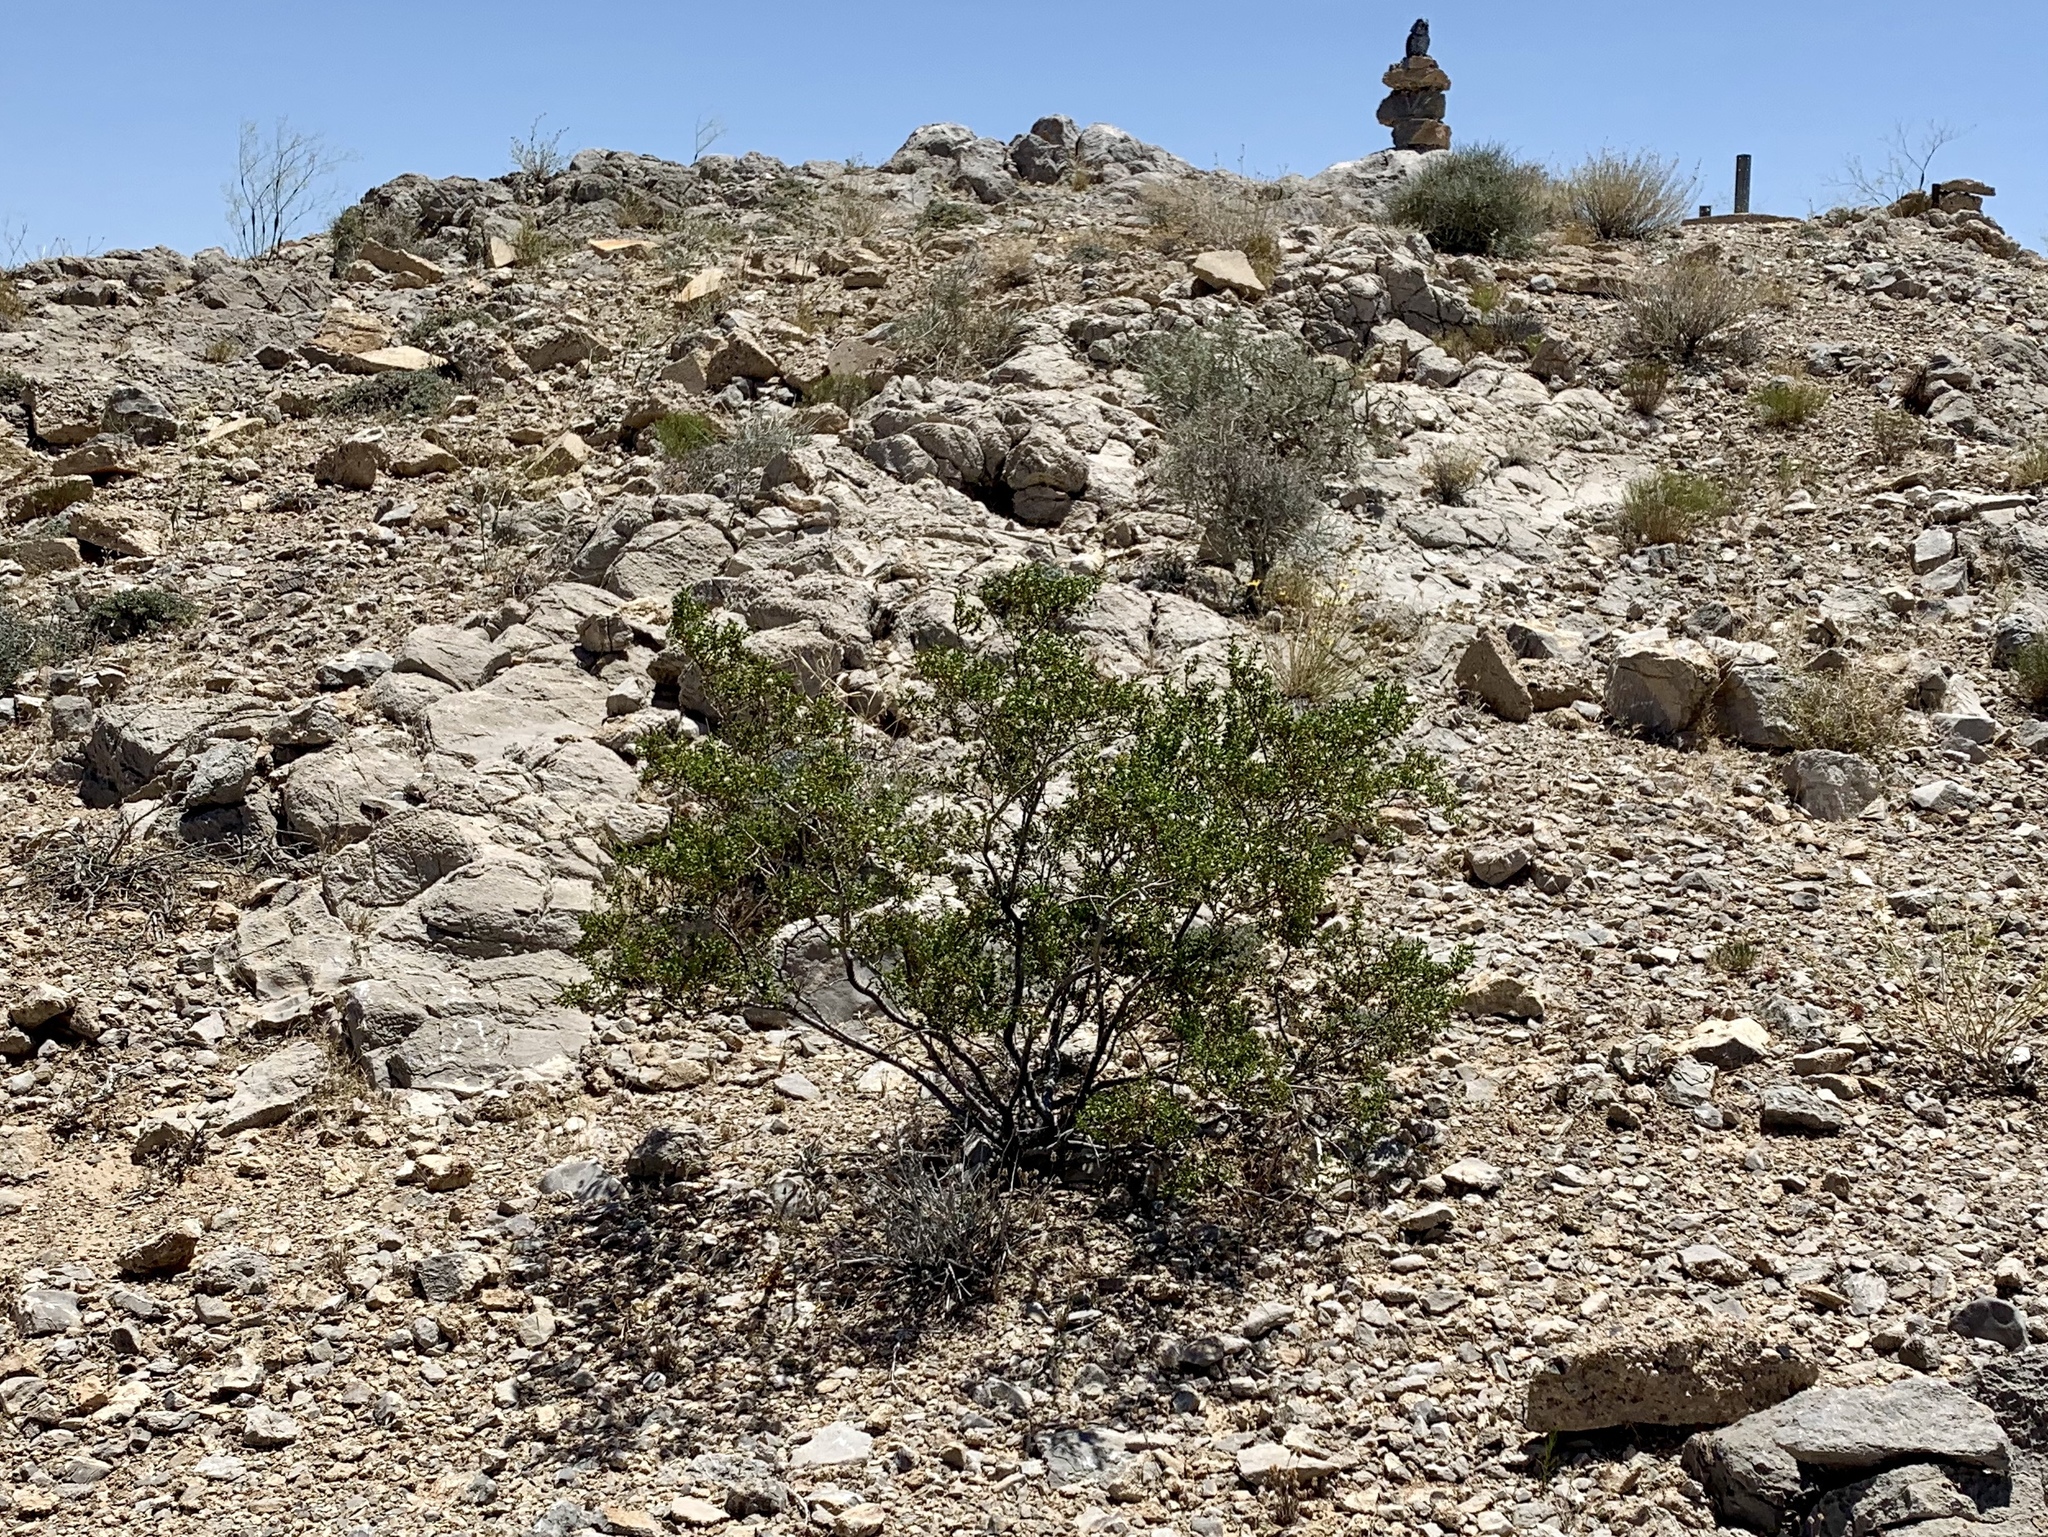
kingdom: Plantae
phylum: Tracheophyta
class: Magnoliopsida
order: Zygophyllales
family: Zygophyllaceae
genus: Larrea
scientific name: Larrea tridentata
